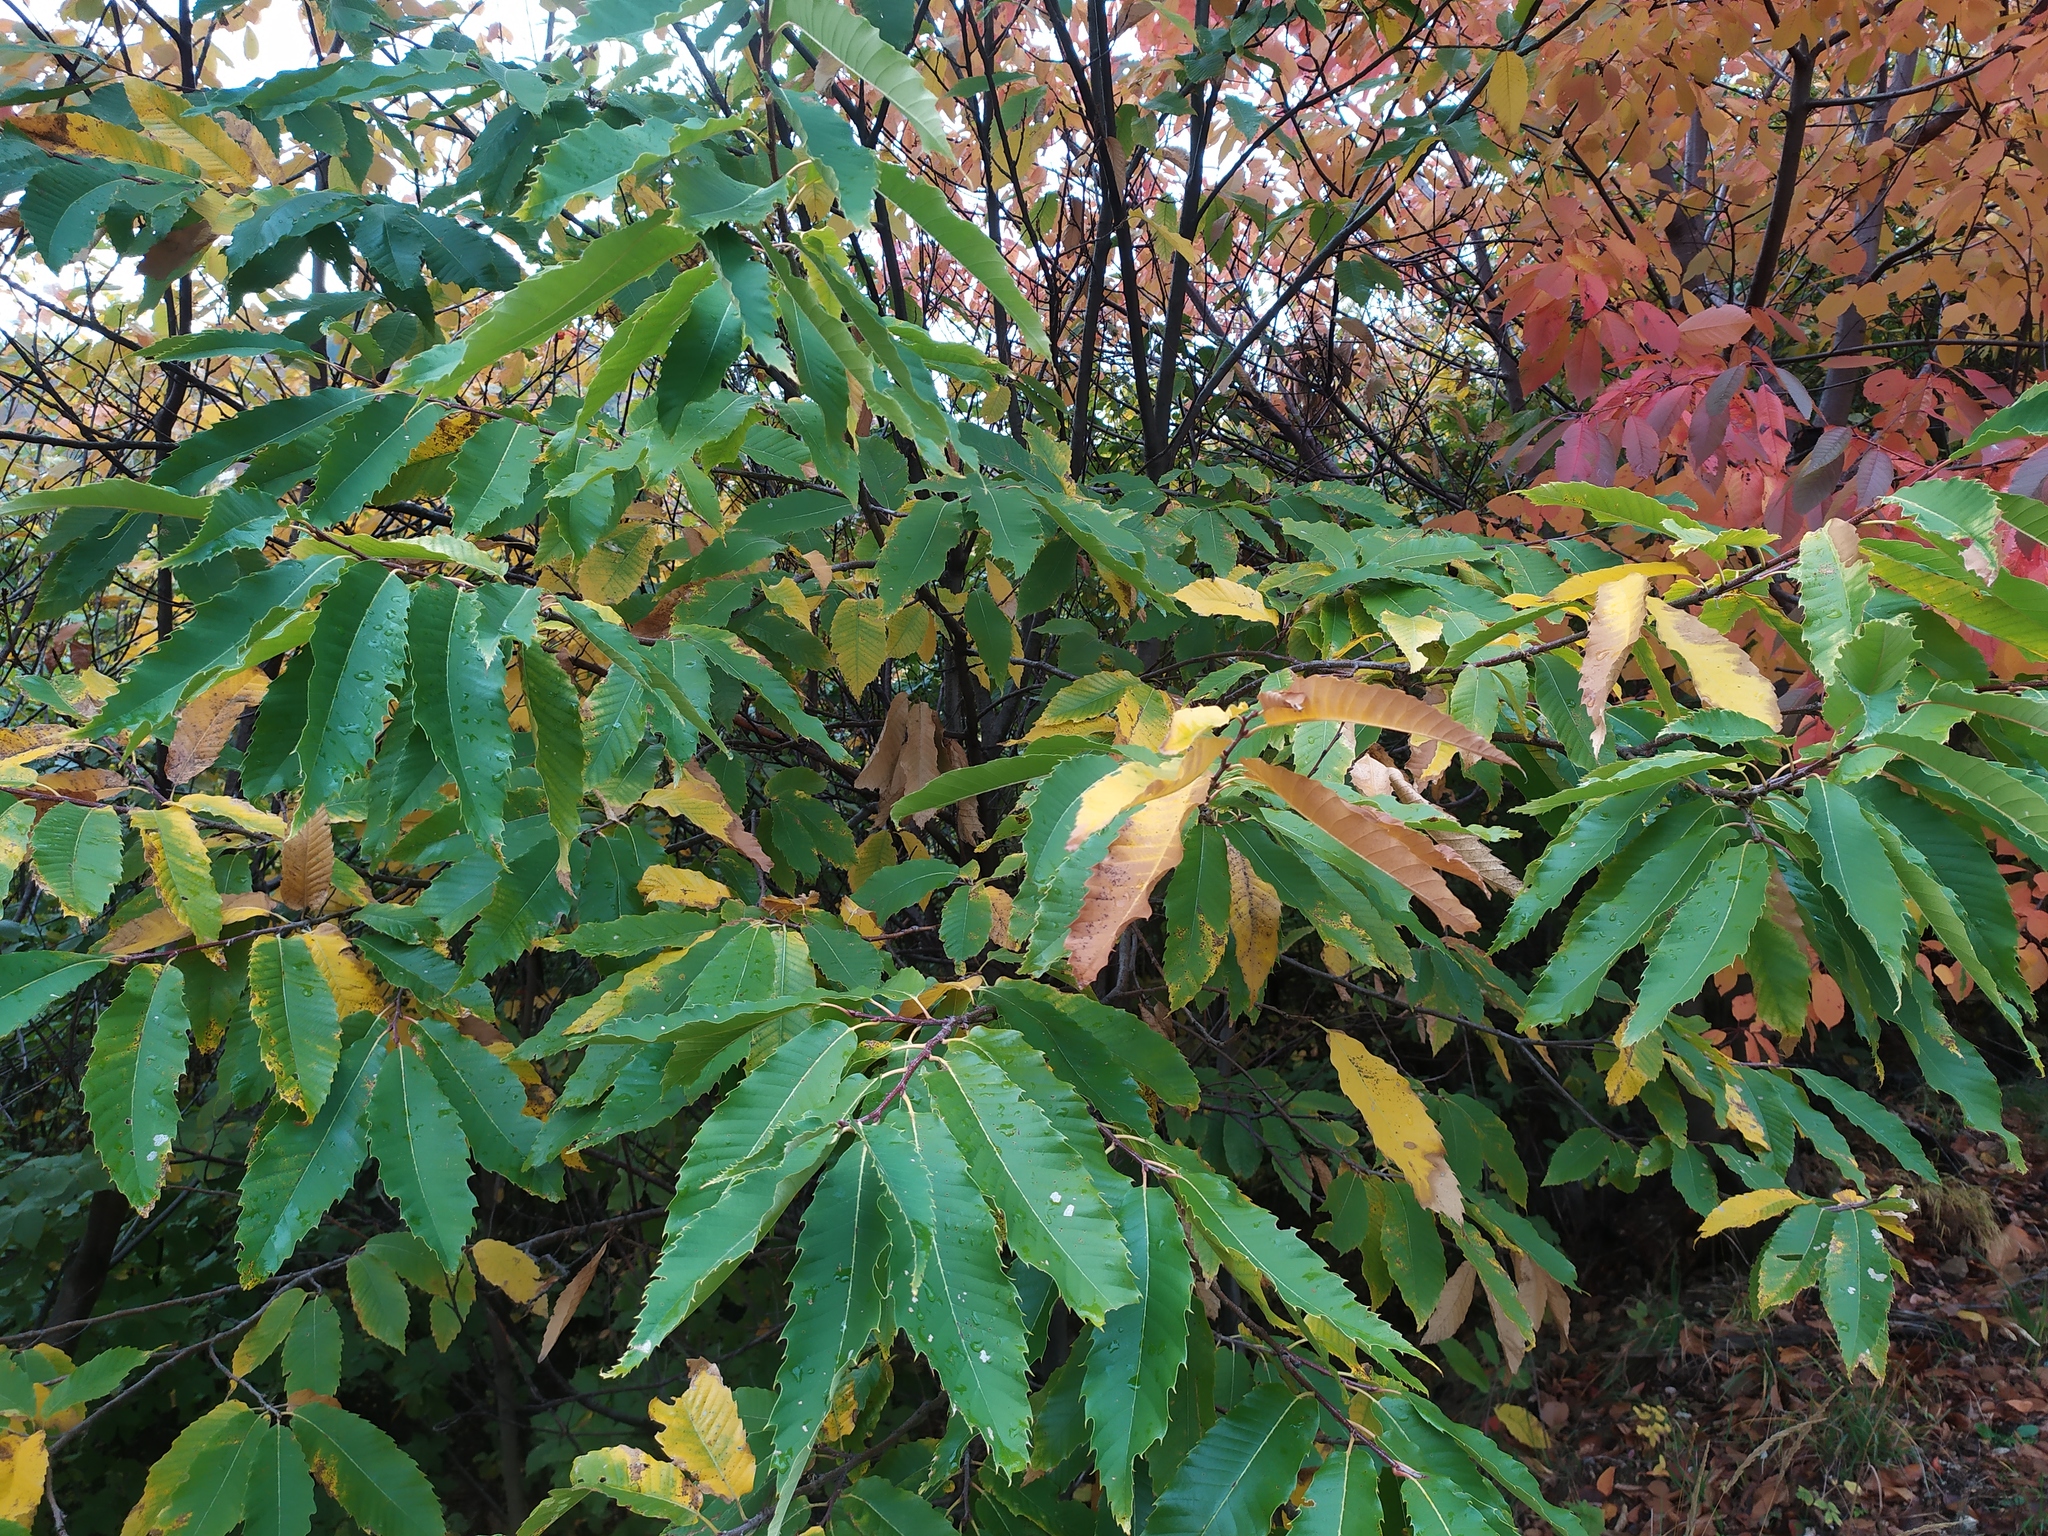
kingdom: Plantae
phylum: Tracheophyta
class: Magnoliopsida
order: Fagales
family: Fagaceae
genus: Castanea
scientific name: Castanea sativa
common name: Sweet chestnut
